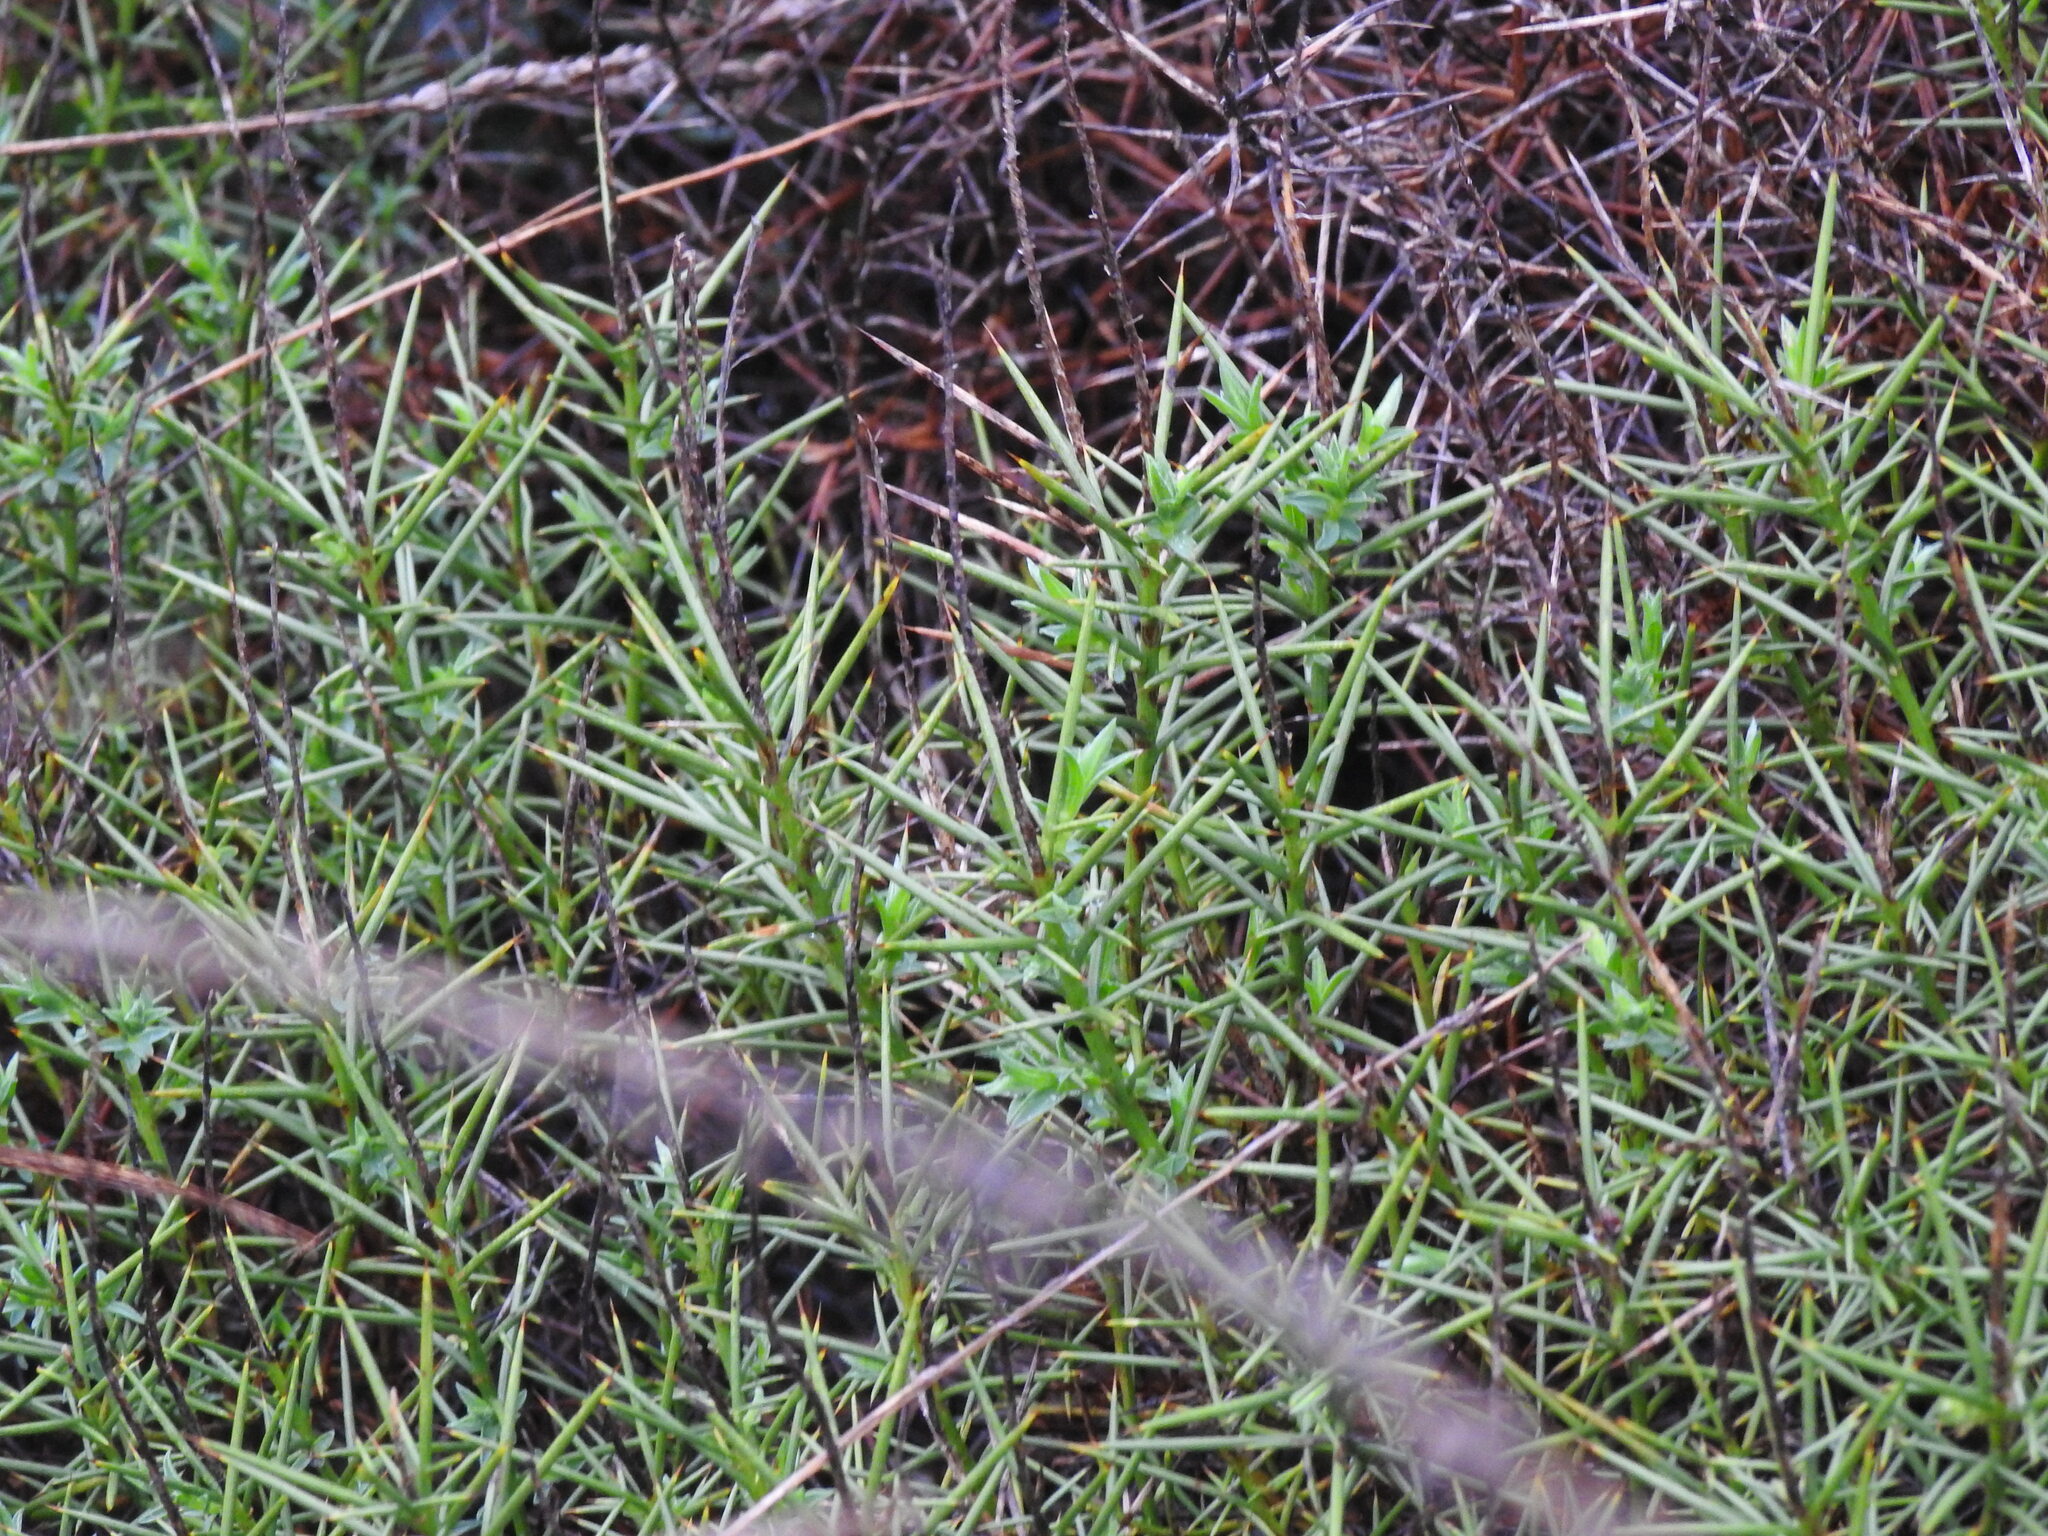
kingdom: Plantae
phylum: Tracheophyta
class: Magnoliopsida
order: Fabales
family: Fabaceae
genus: Genista
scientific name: Genista hirsuta
